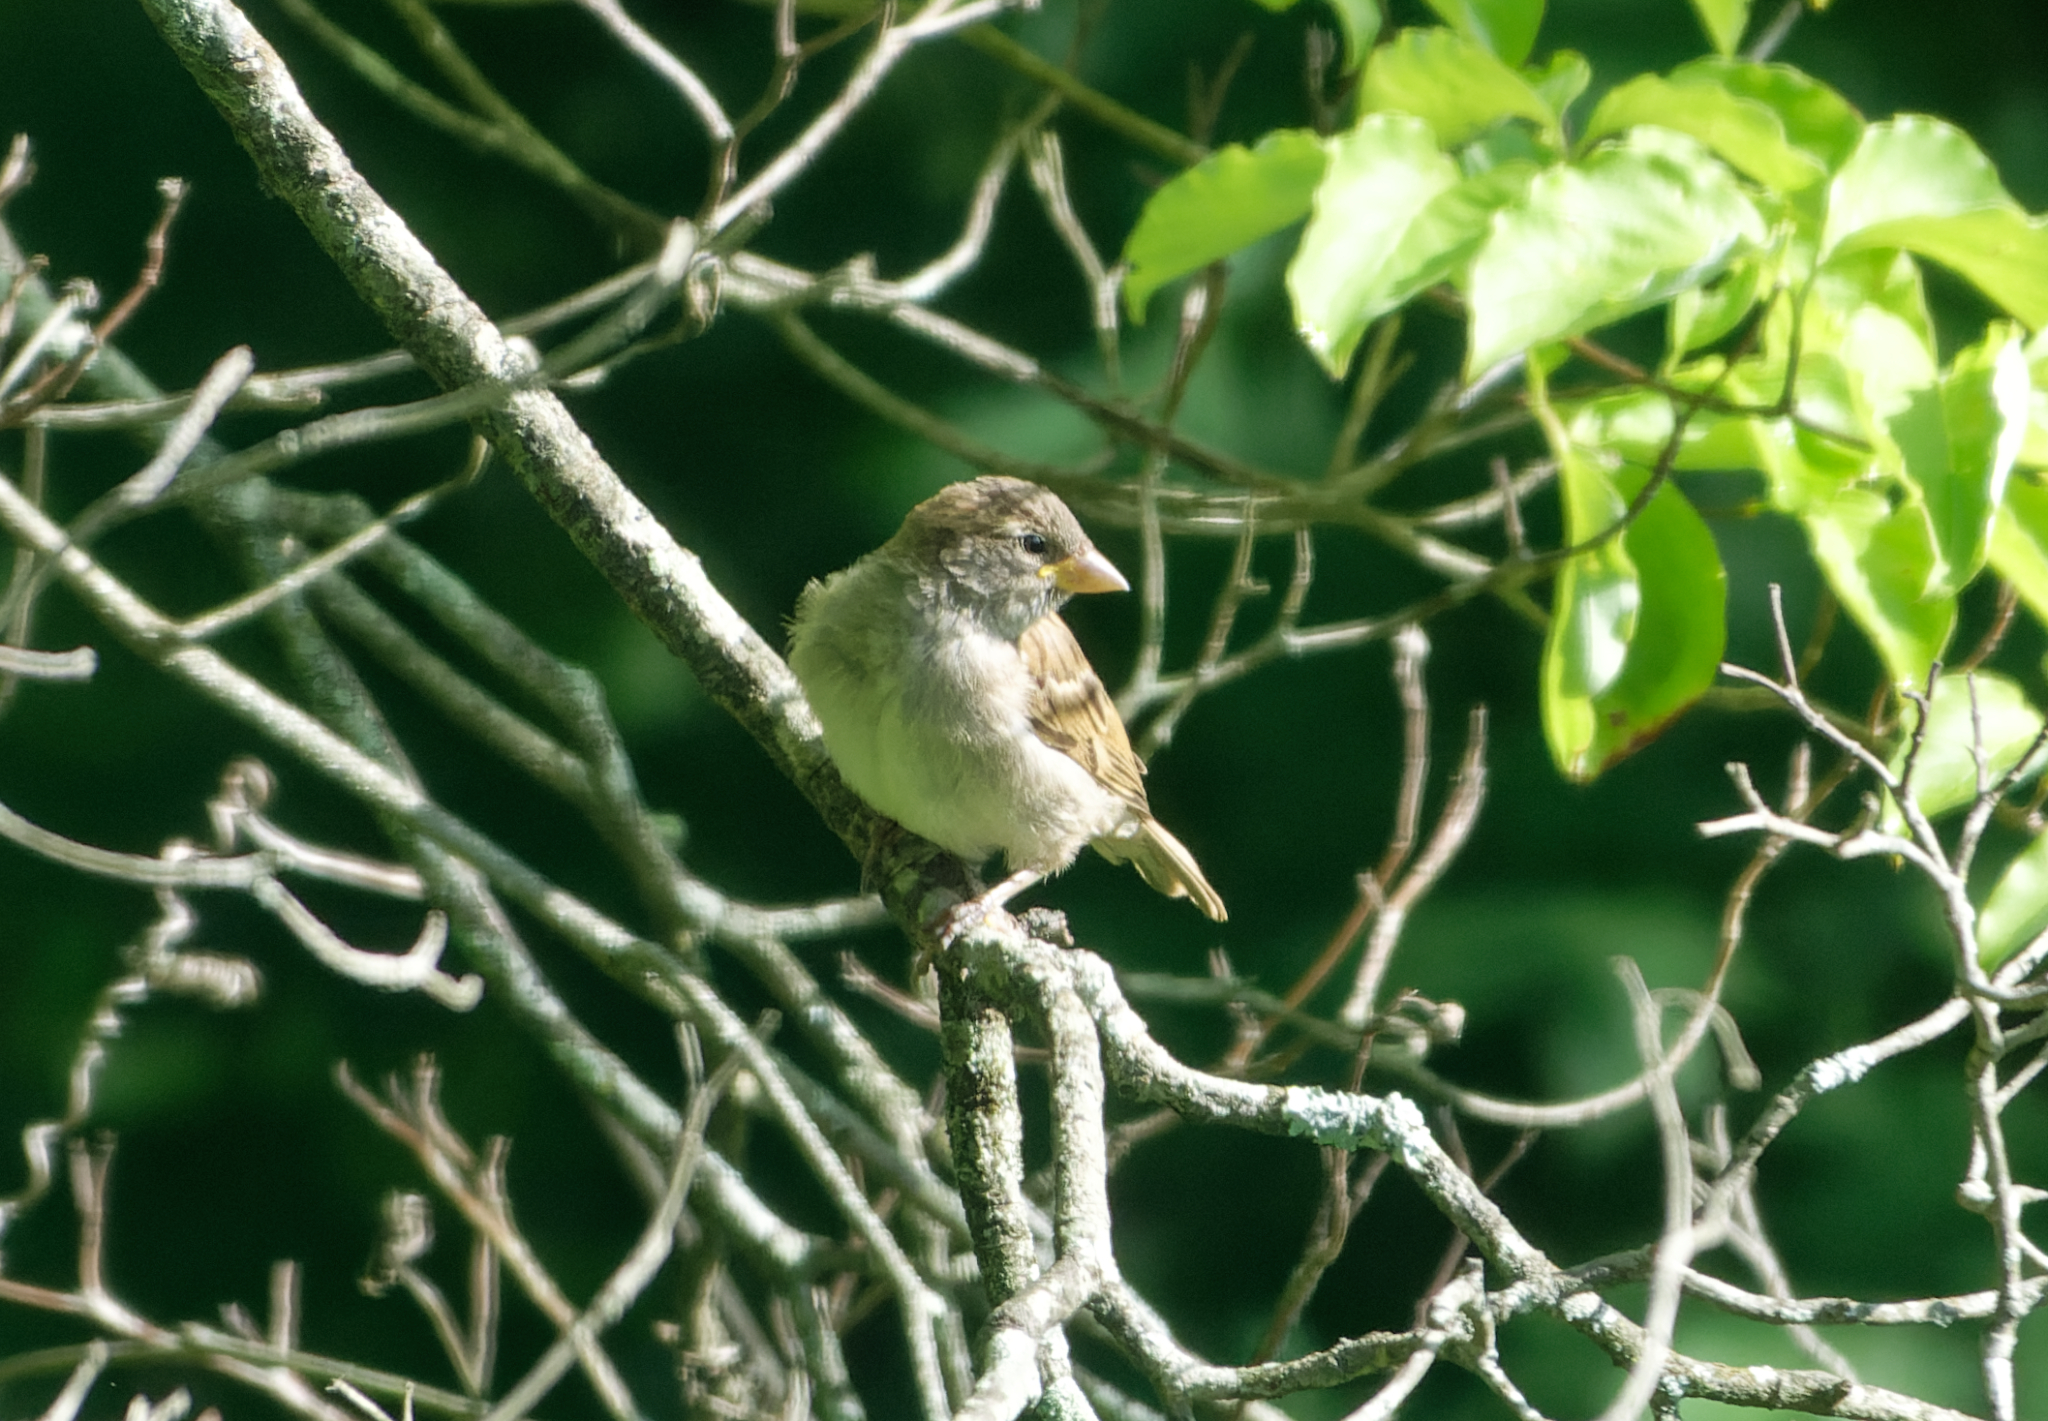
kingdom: Animalia
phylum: Chordata
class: Aves
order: Passeriformes
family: Passeridae
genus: Passer
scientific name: Passer domesticus
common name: House sparrow
